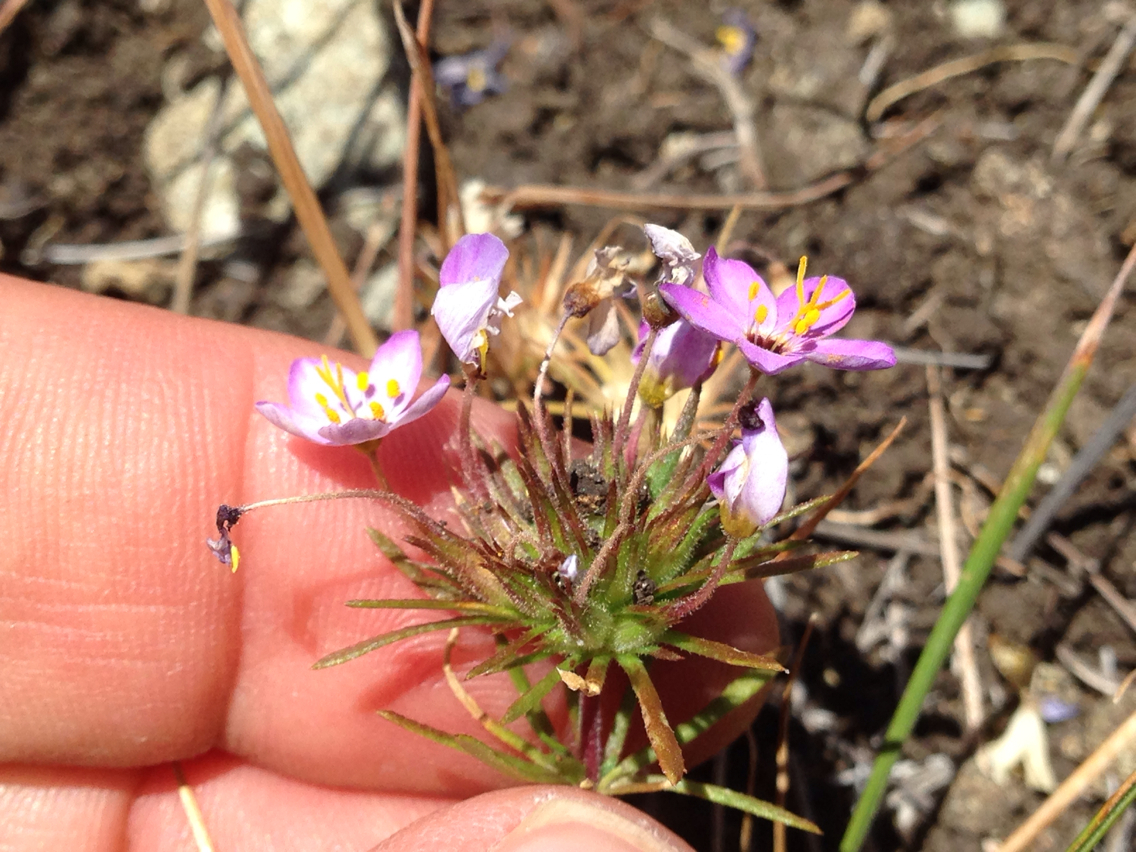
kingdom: Plantae
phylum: Tracheophyta
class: Magnoliopsida
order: Ericales
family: Polemoniaceae
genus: Leptosiphon
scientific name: Leptosiphon parviflorus
